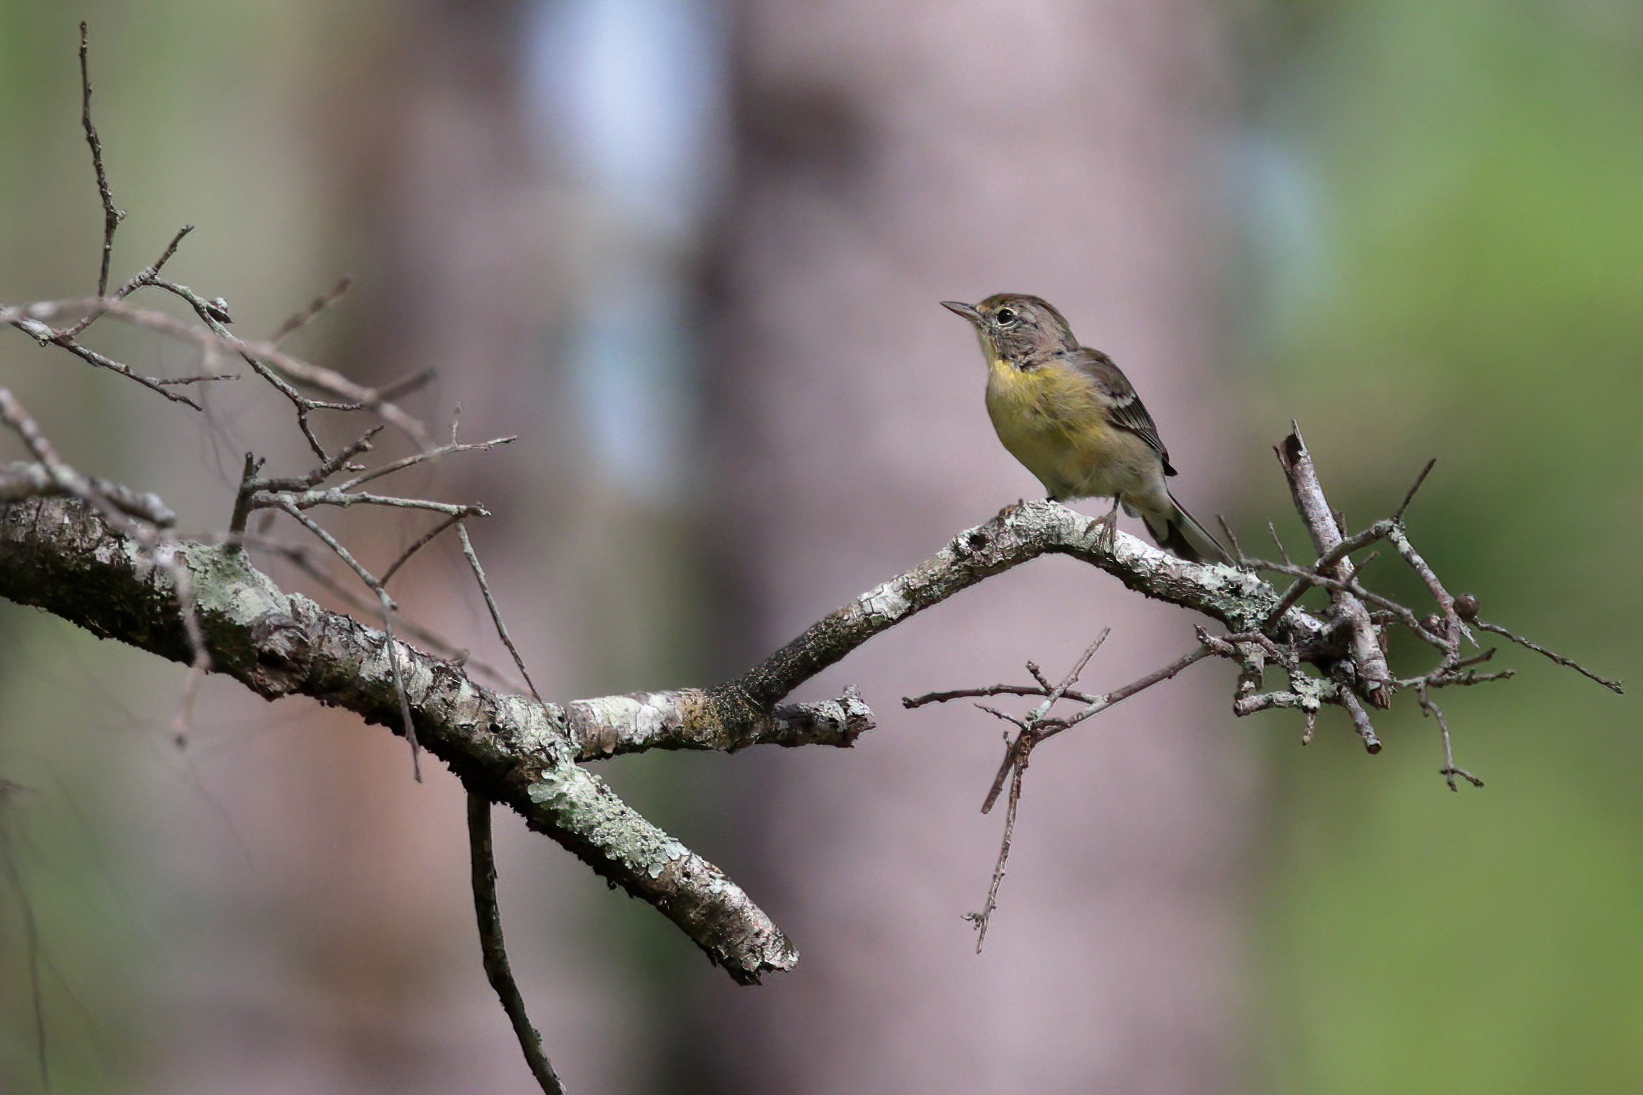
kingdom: Animalia
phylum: Chordata
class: Aves
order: Passeriformes
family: Parulidae
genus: Setophaga
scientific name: Setophaga pinus
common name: Pine warbler
